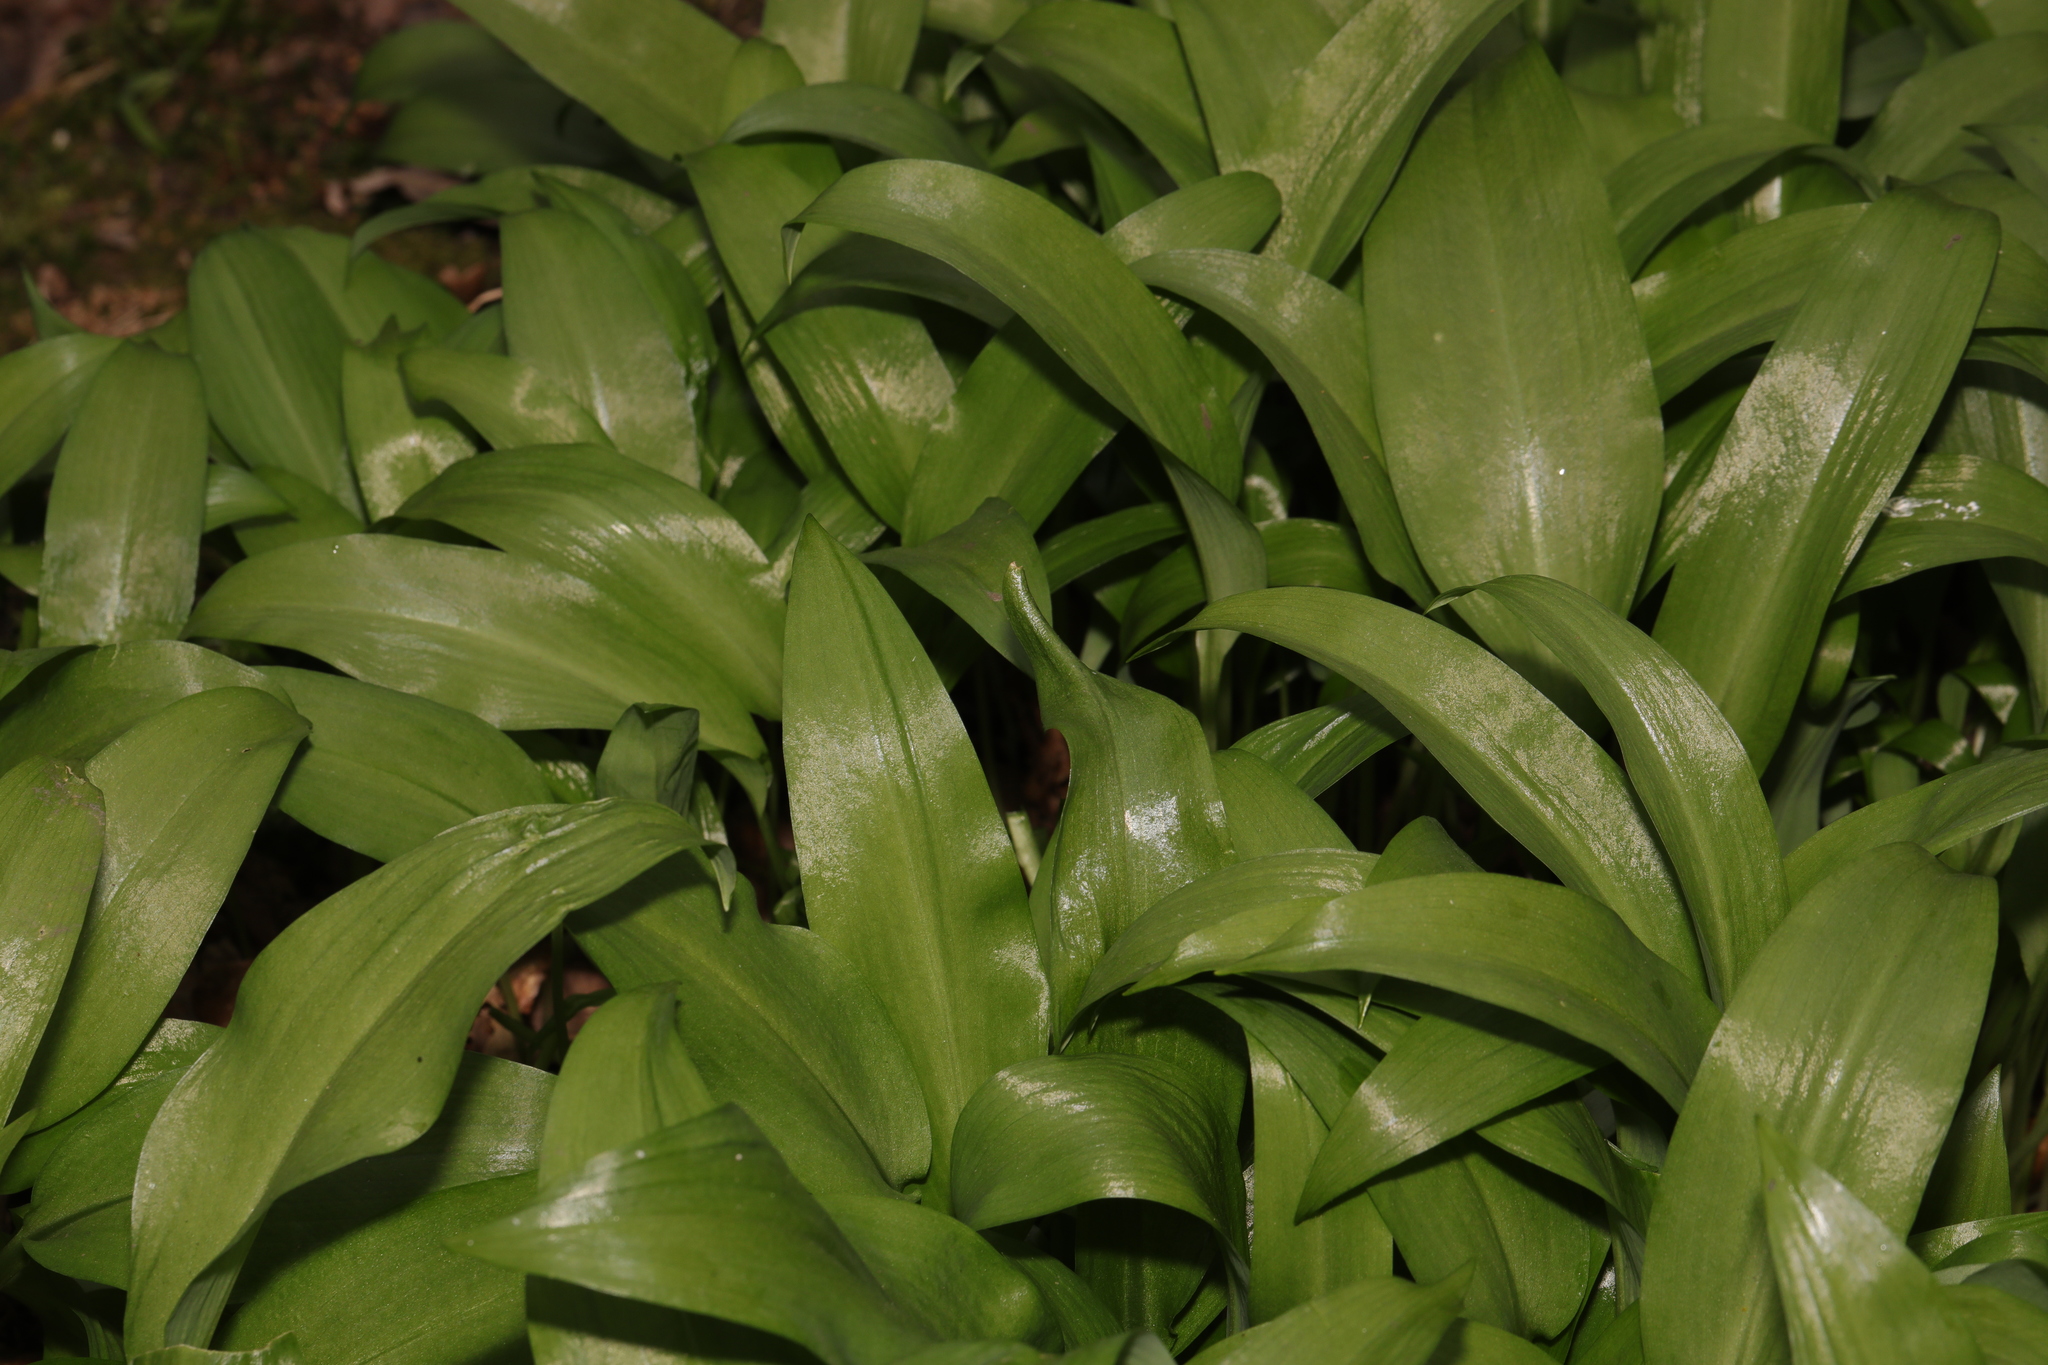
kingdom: Plantae
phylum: Tracheophyta
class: Liliopsida
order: Asparagales
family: Amaryllidaceae
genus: Allium
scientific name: Allium ursinum
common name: Ramsons
